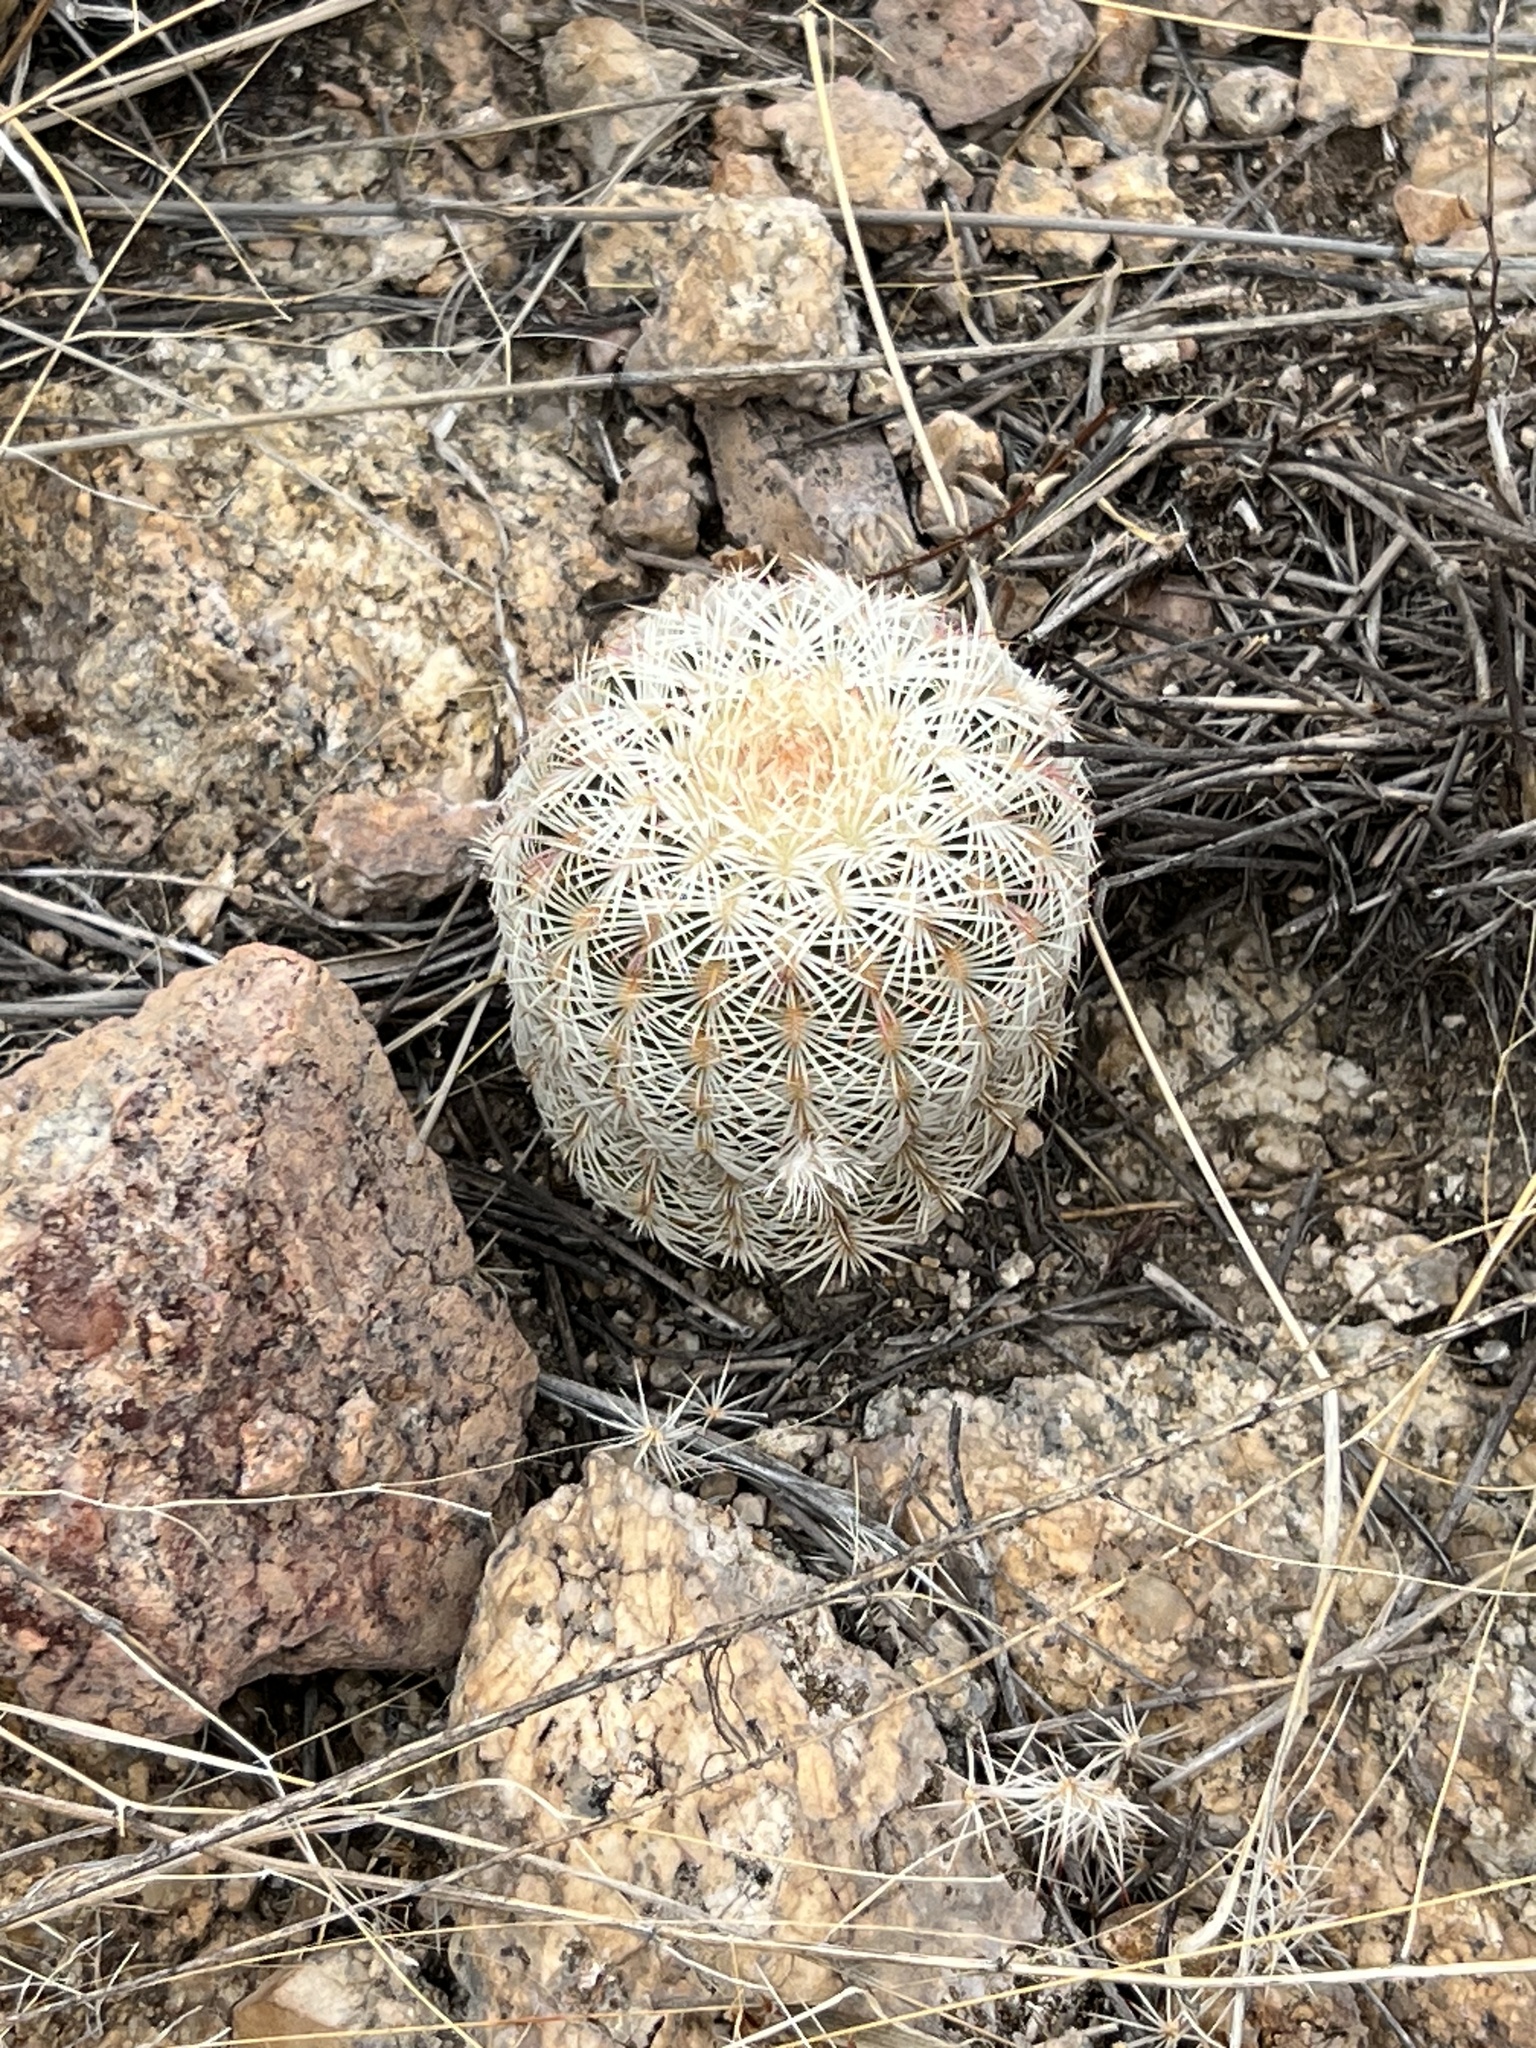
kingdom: Plantae
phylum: Tracheophyta
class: Magnoliopsida
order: Caryophyllales
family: Cactaceae
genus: Echinocereus
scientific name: Echinocereus rigidissimus
